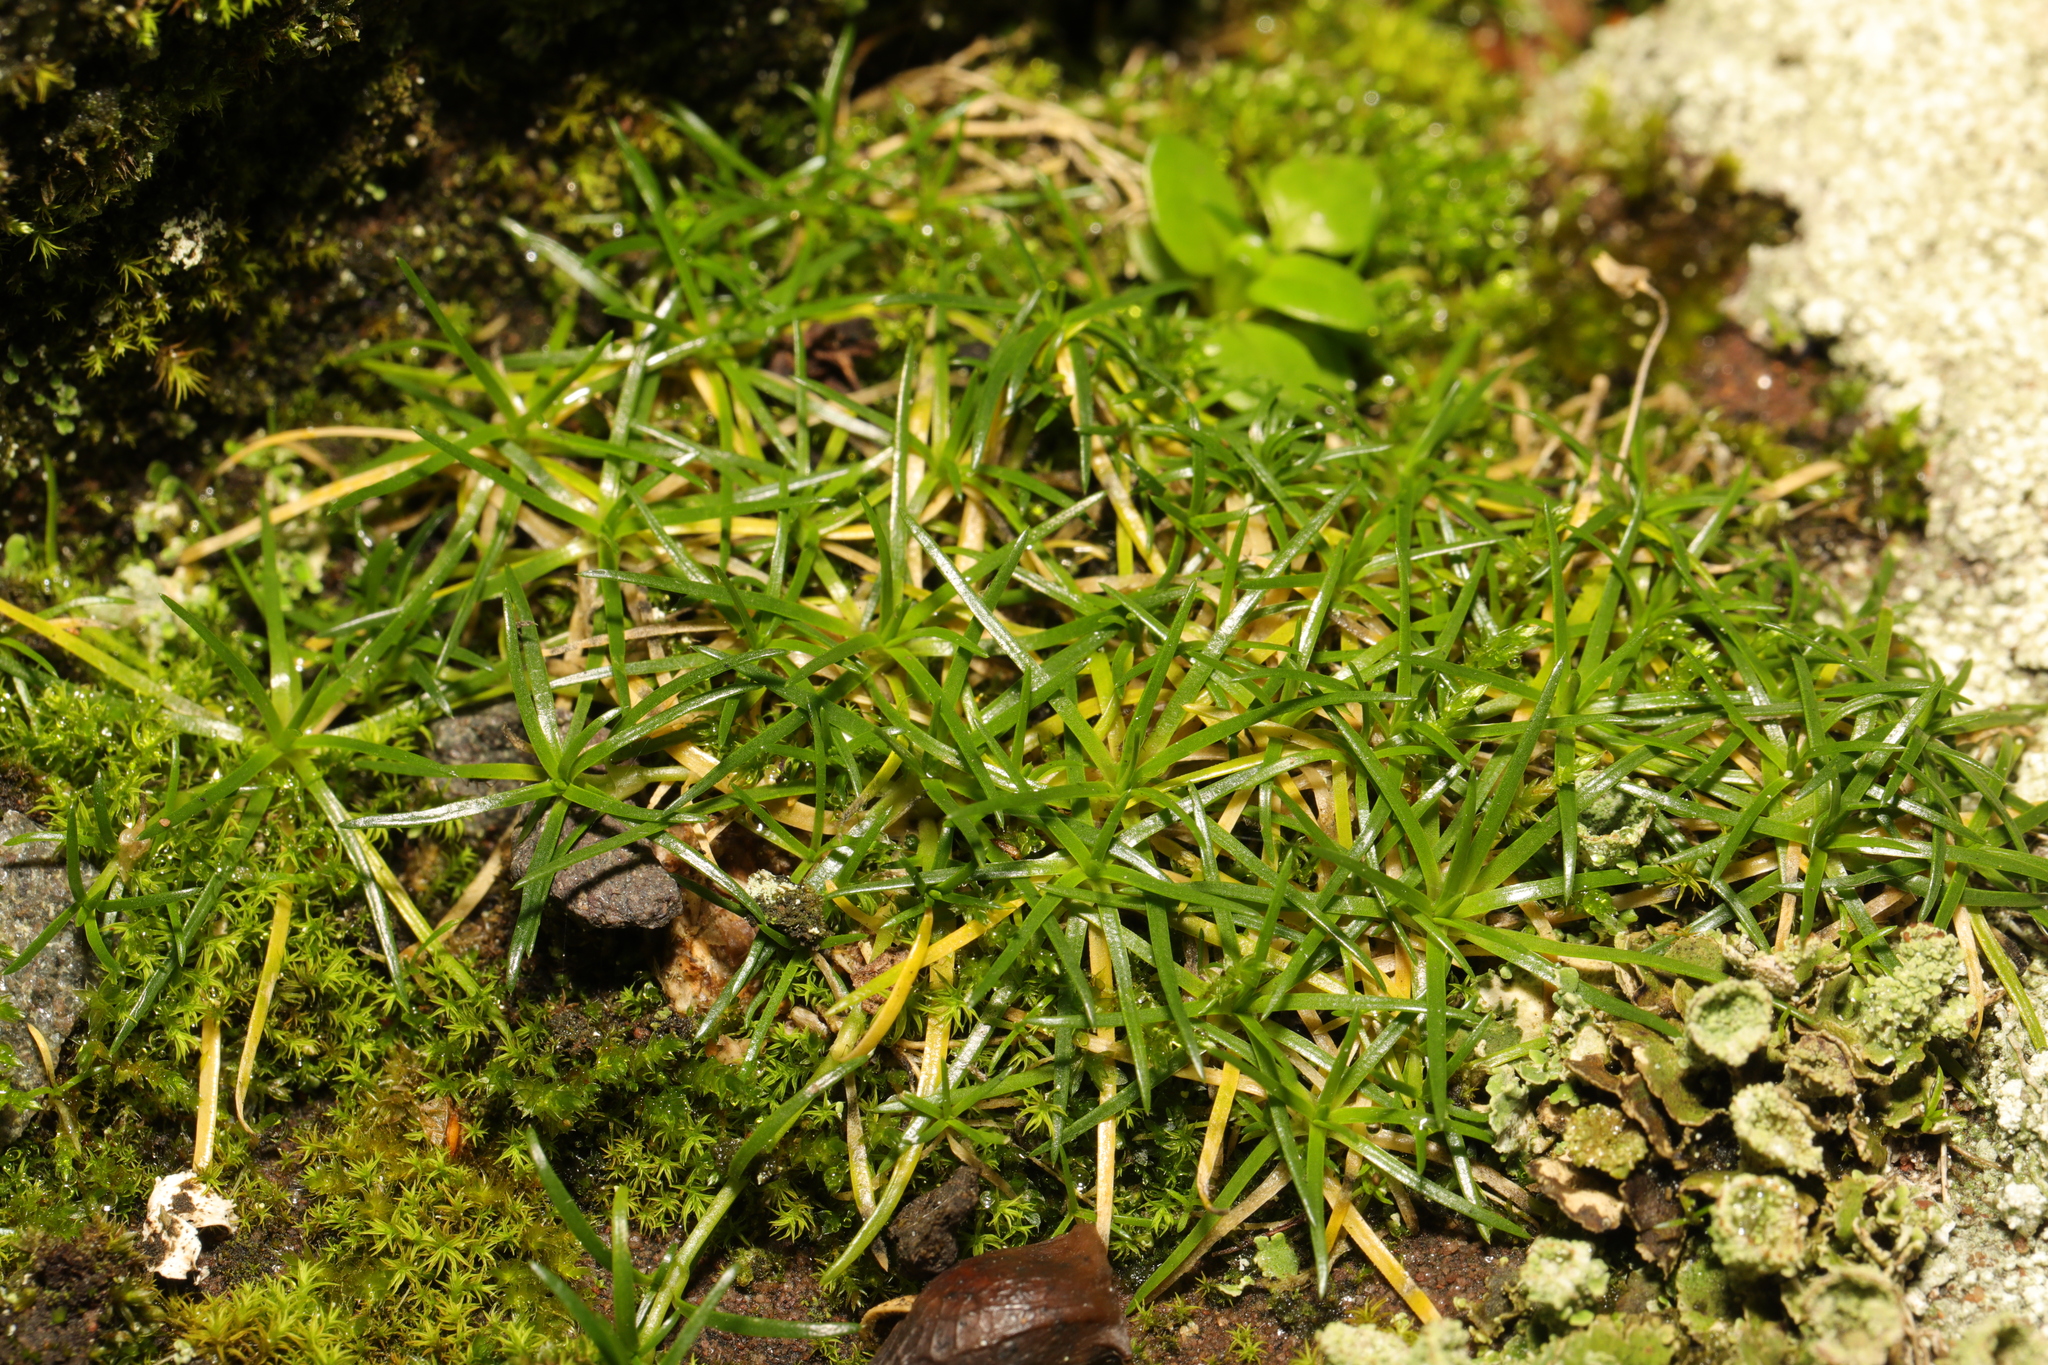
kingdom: Plantae
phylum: Tracheophyta
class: Magnoliopsida
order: Caryophyllales
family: Caryophyllaceae
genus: Sagina
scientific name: Sagina procumbens
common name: Procumbent pearlwort
